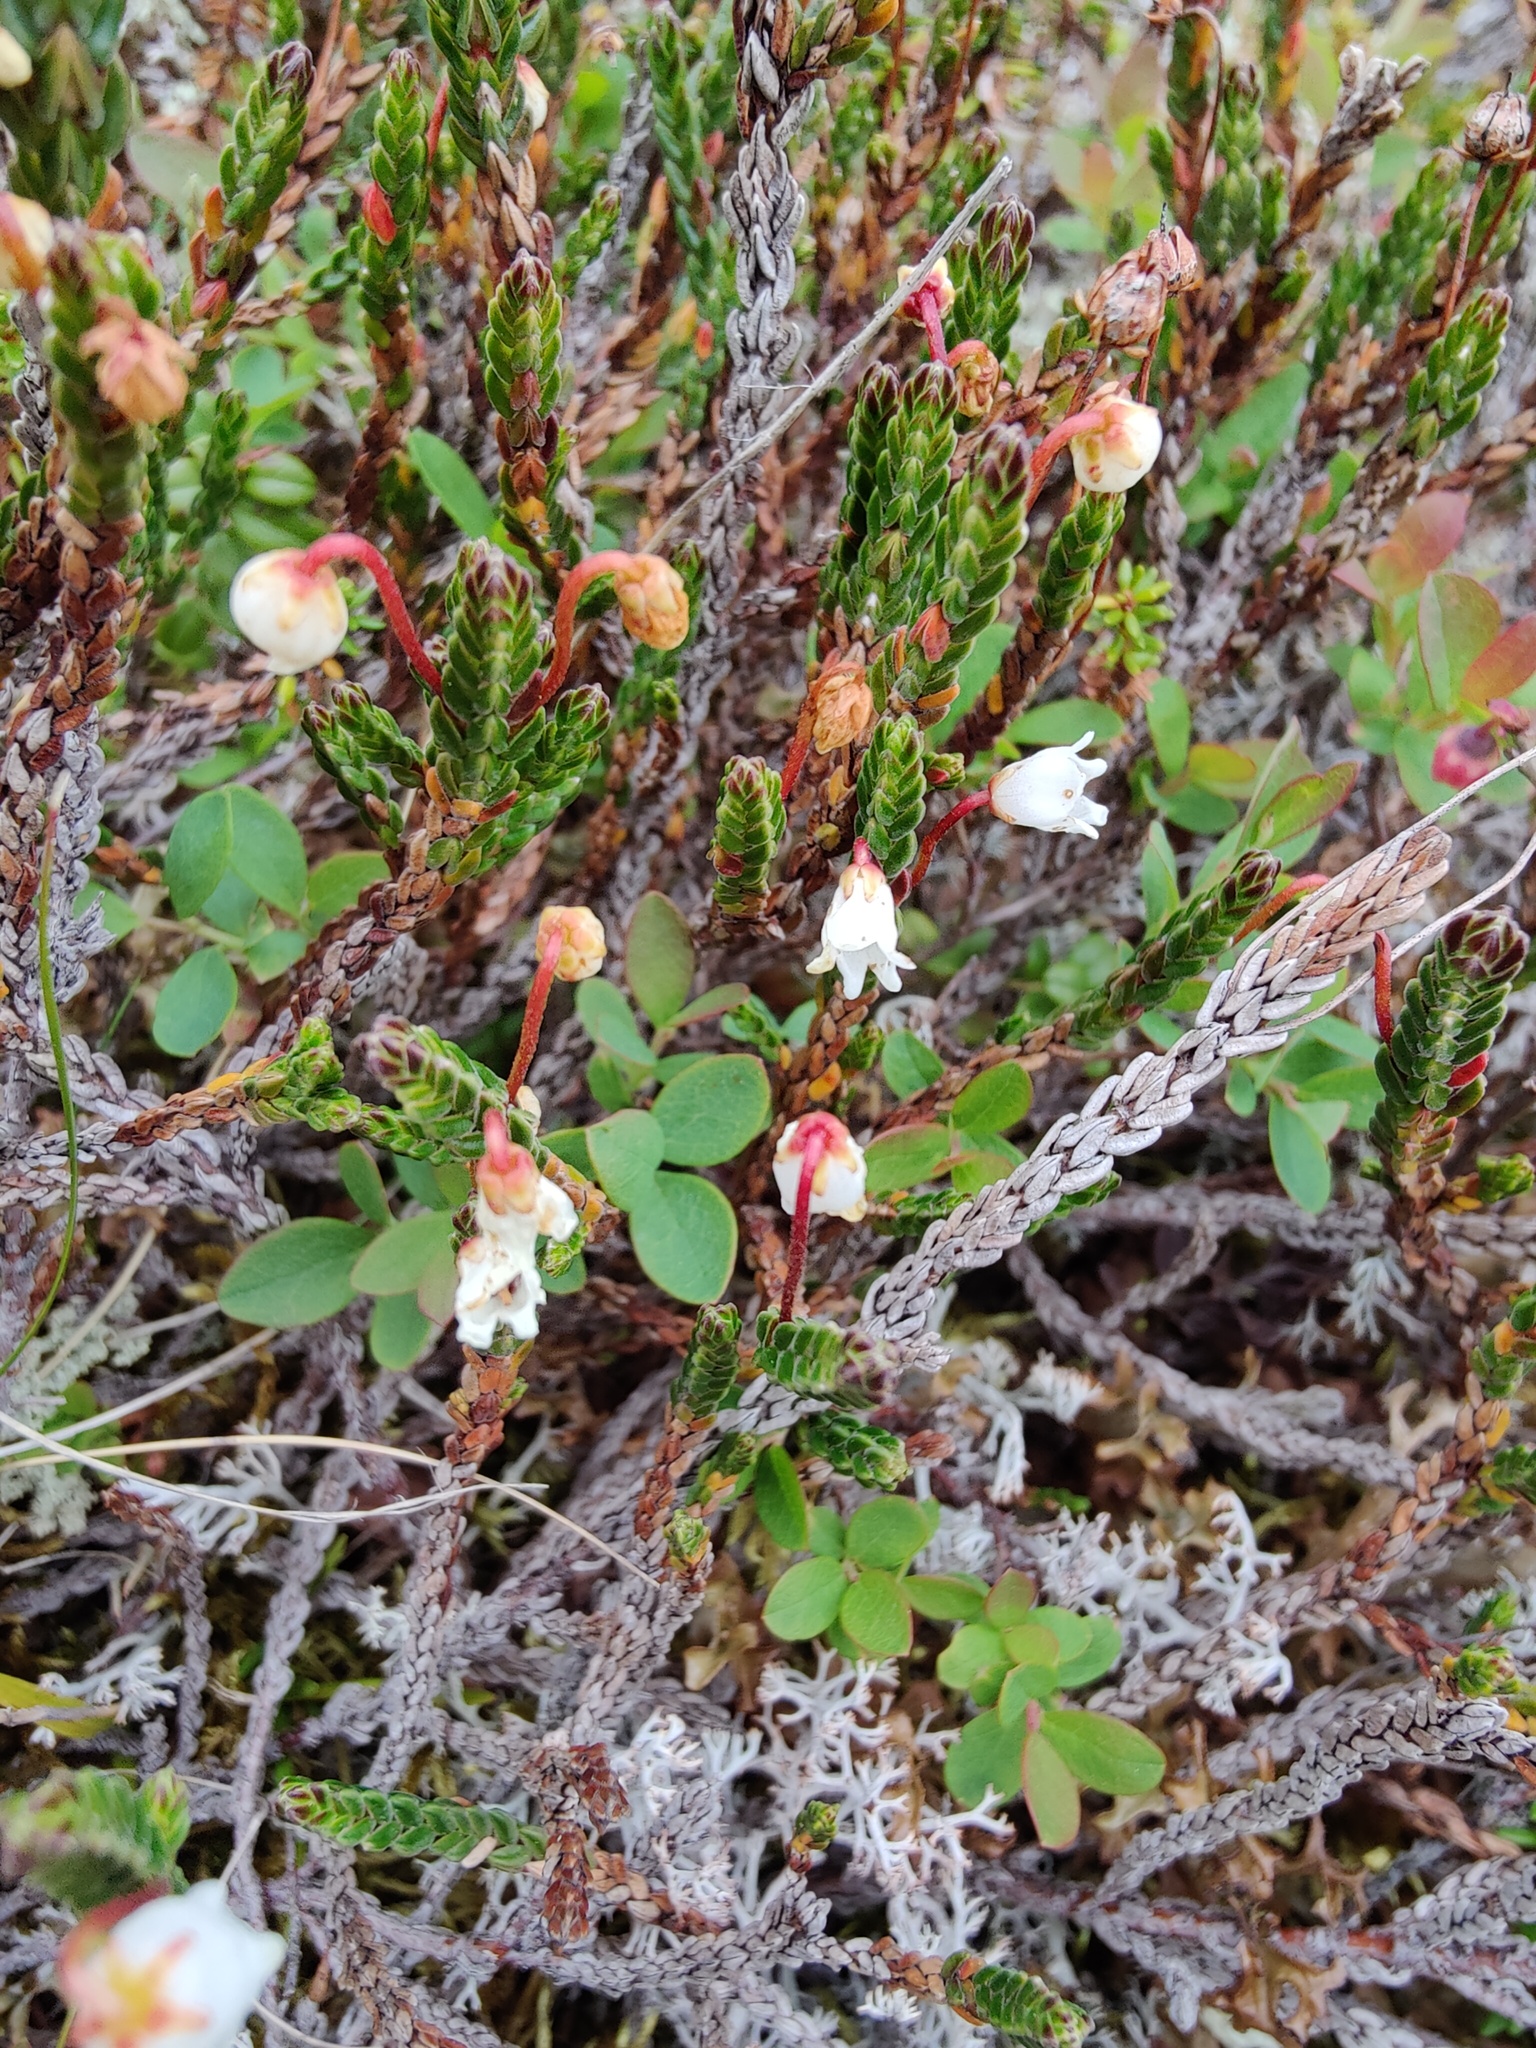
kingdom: Plantae
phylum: Tracheophyta
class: Magnoliopsida
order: Ericales
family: Ericaceae
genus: Cassiope
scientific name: Cassiope tetragona
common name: Arctic bell heather
